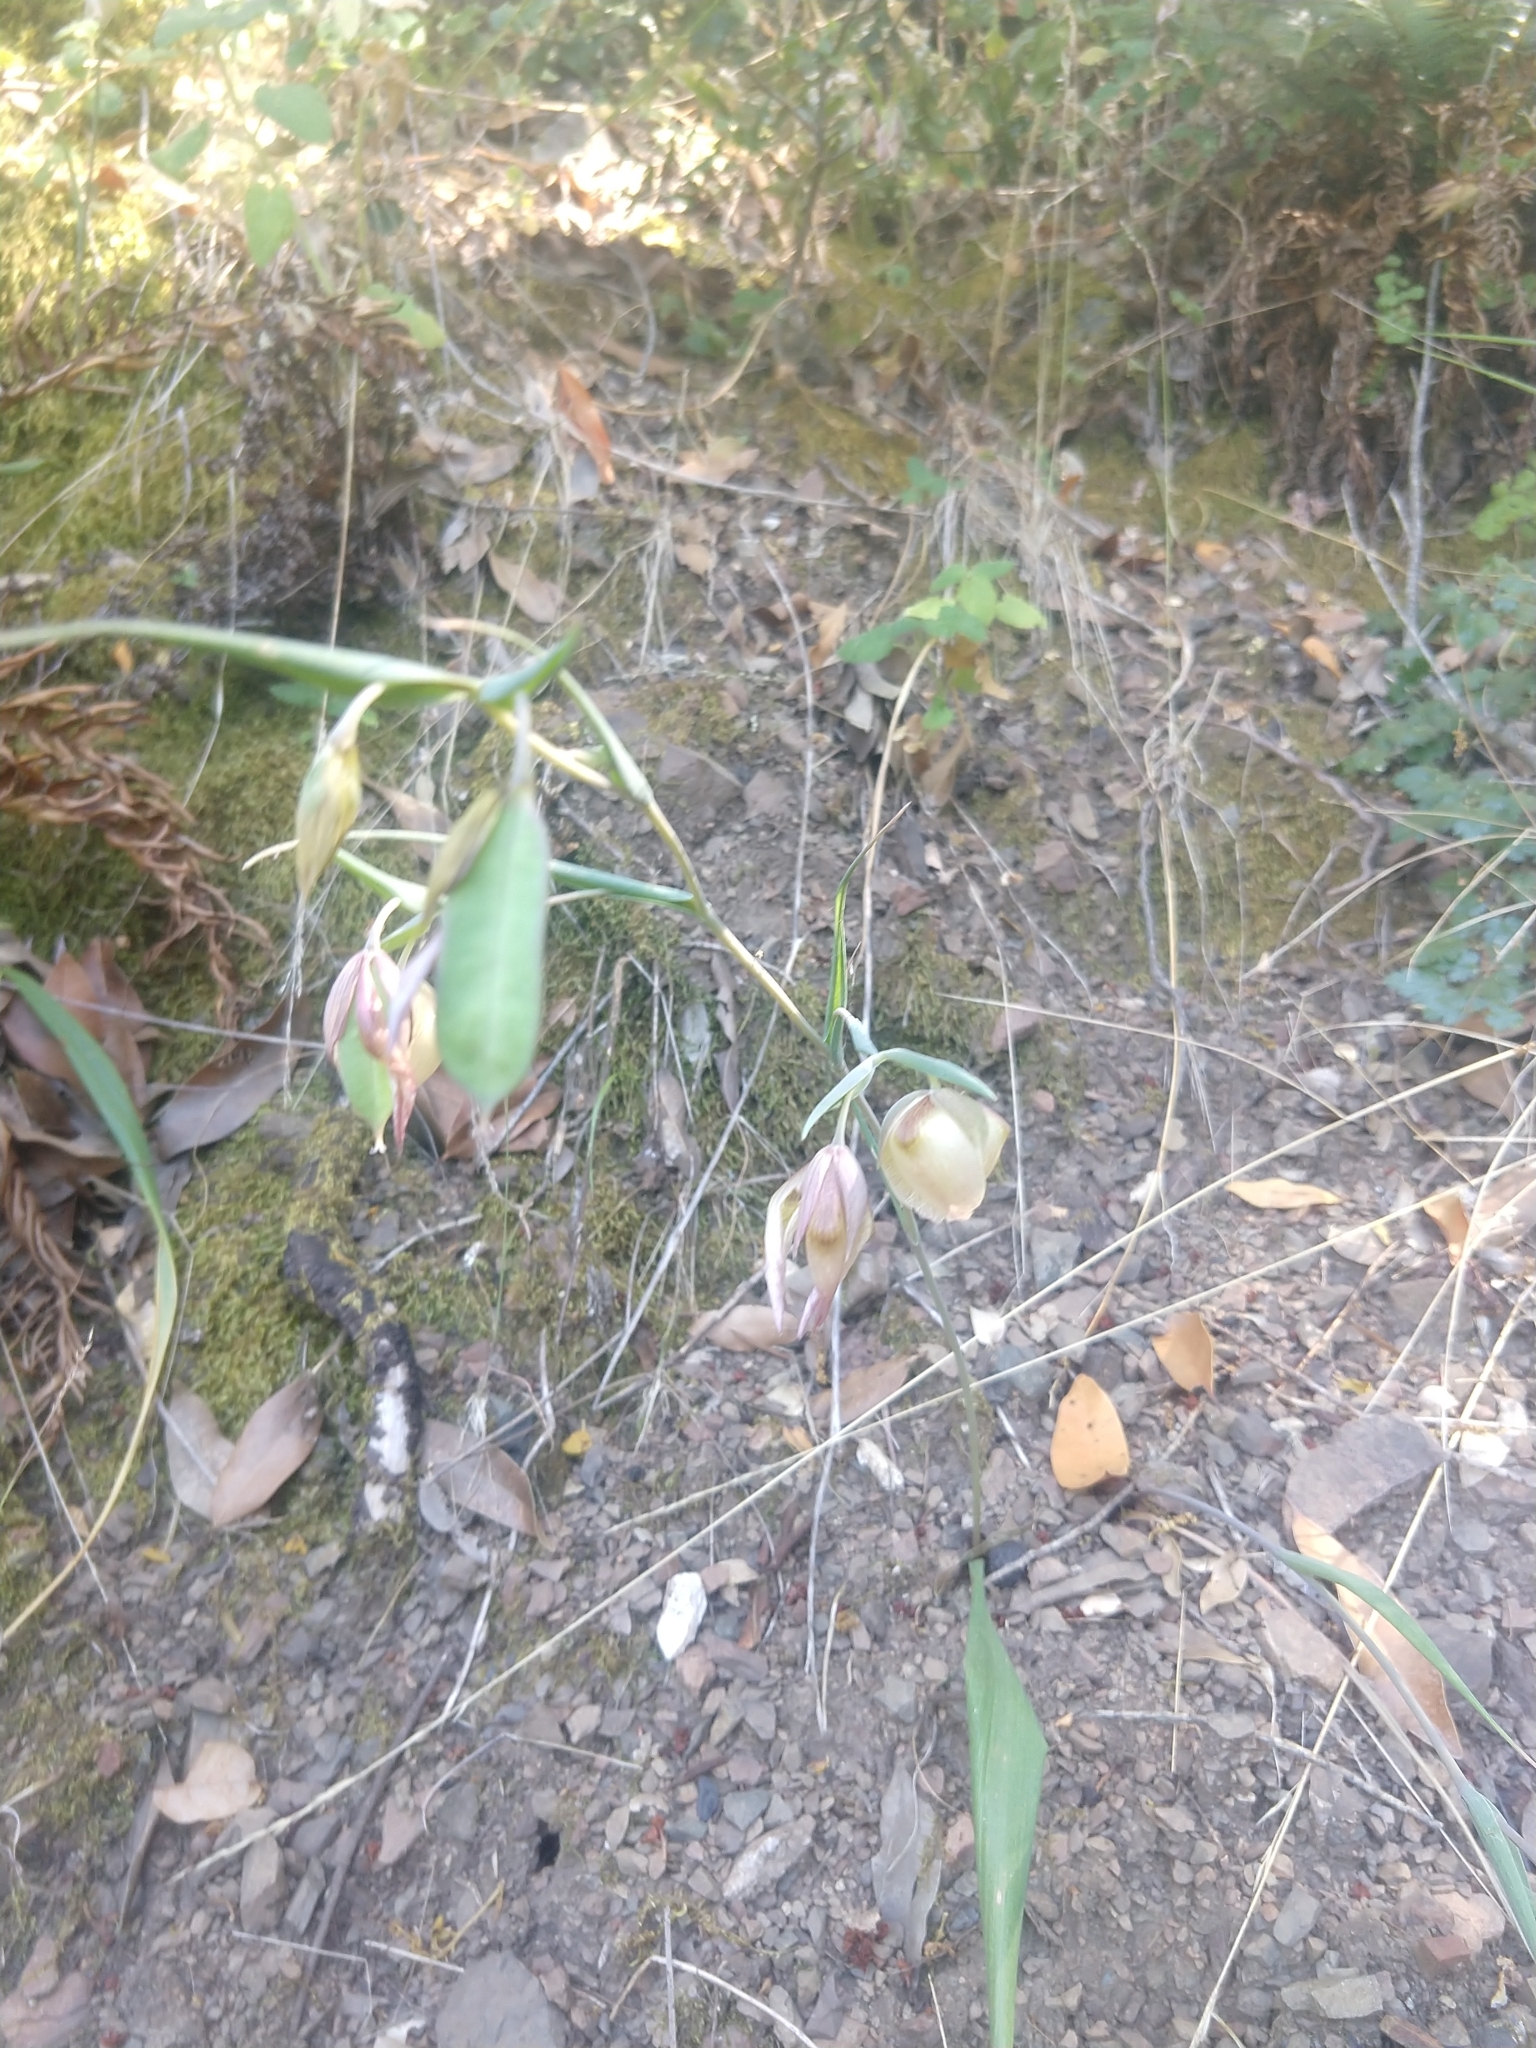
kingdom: Plantae
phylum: Tracheophyta
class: Liliopsida
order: Liliales
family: Liliaceae
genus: Calochortus
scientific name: Calochortus albus
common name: Fairy-lantern
